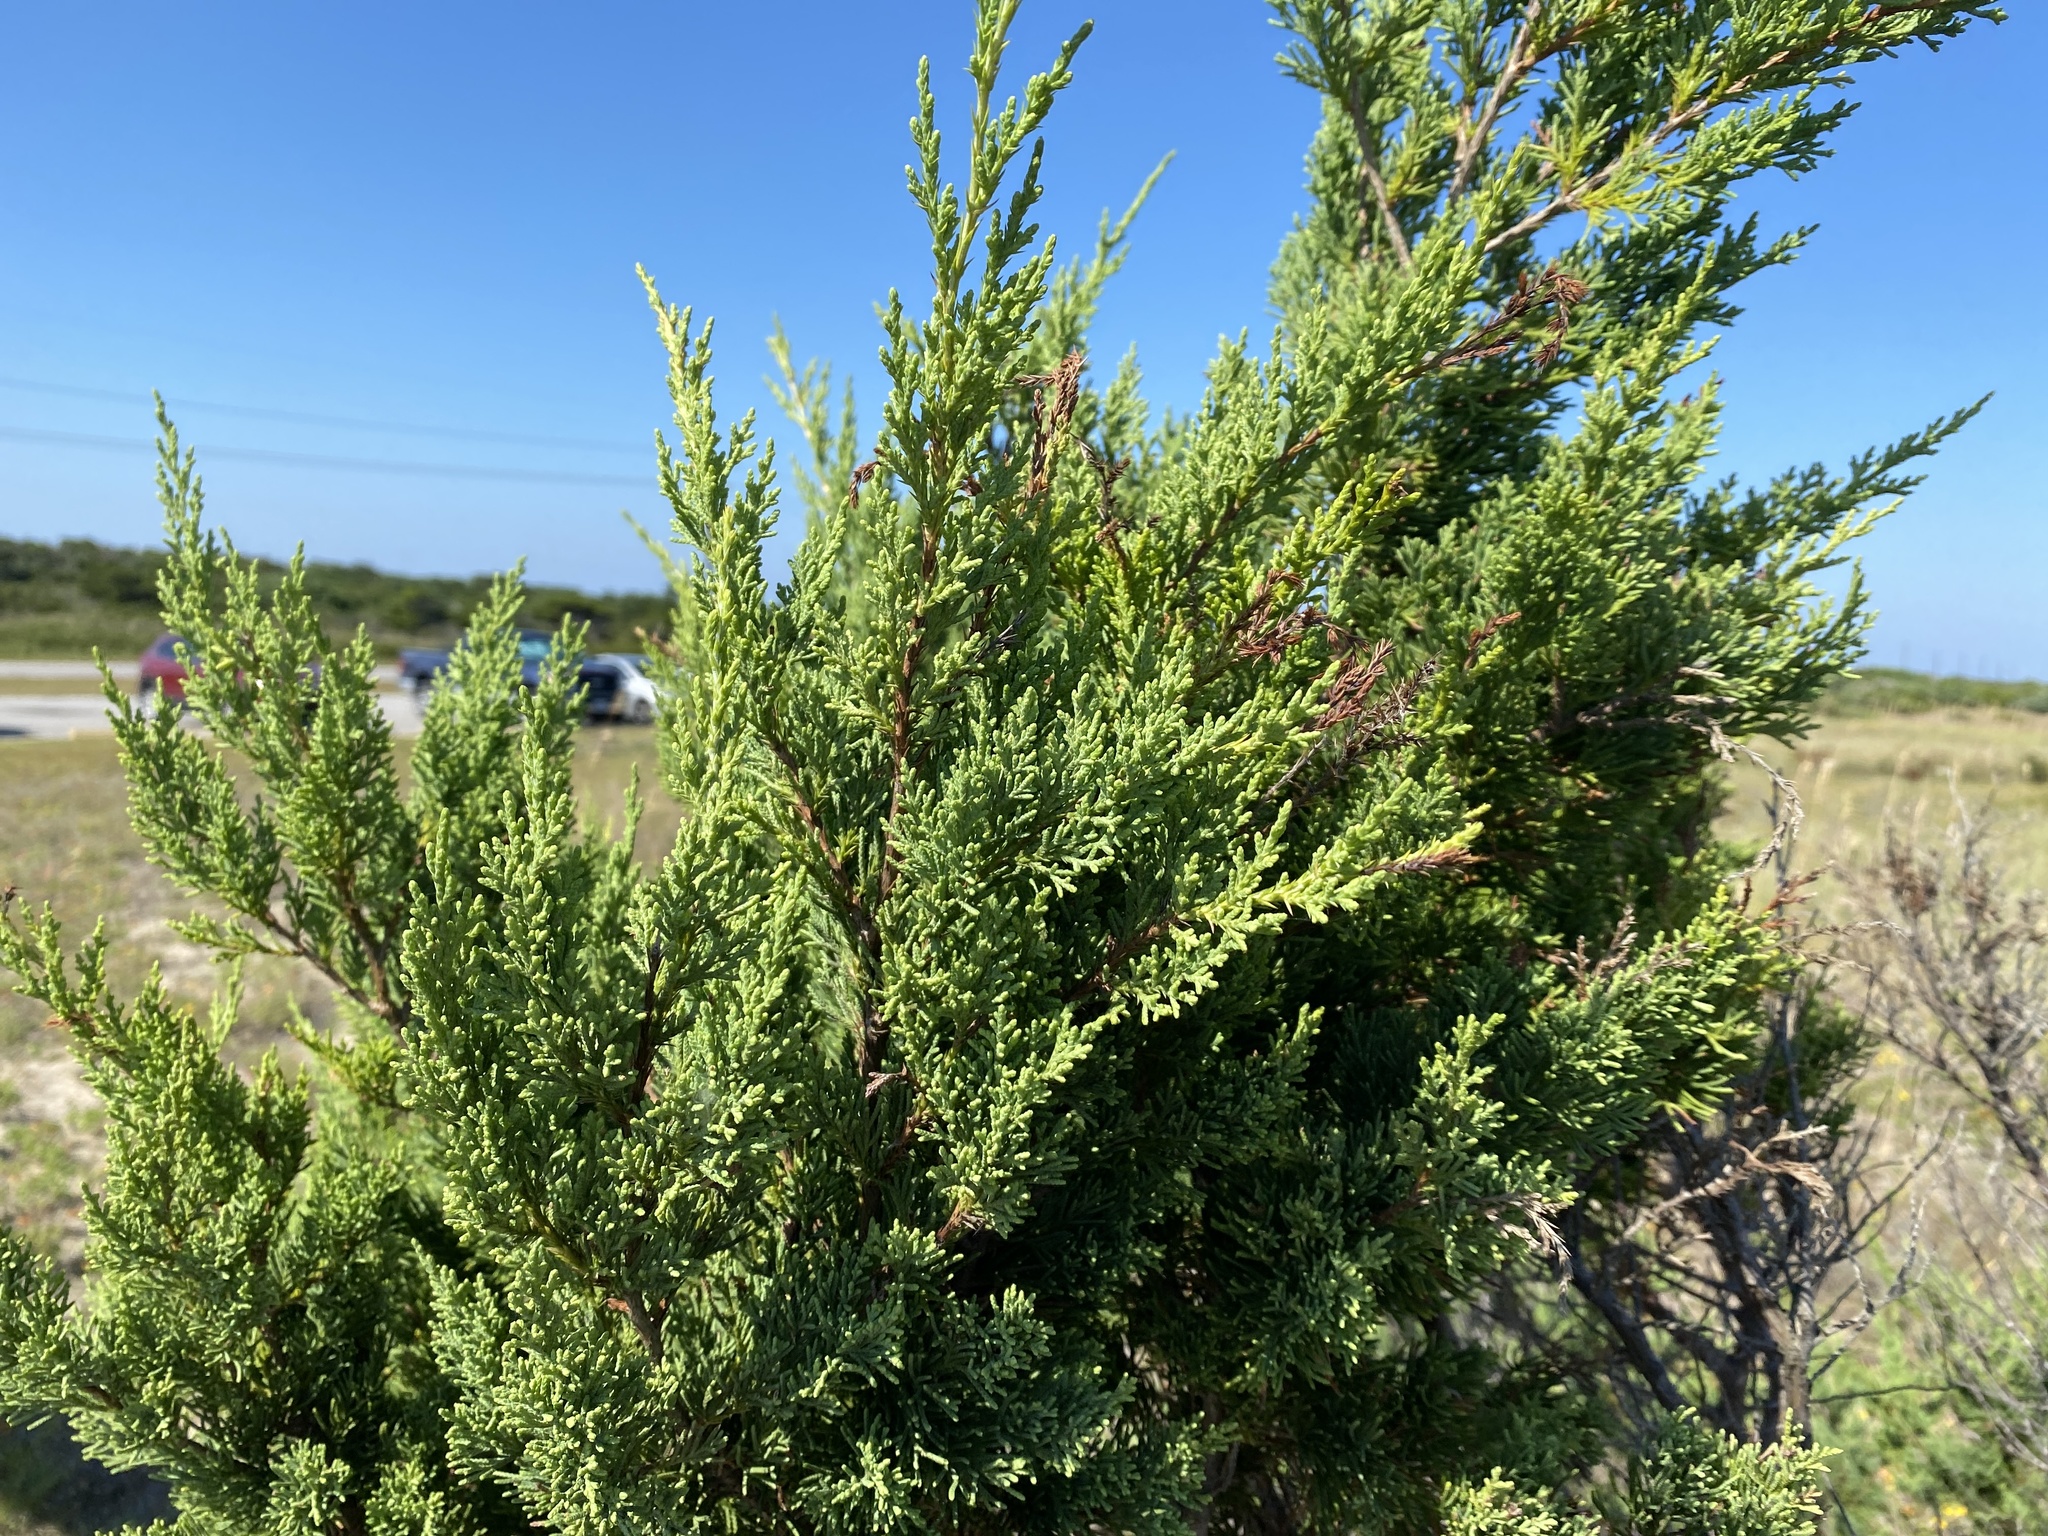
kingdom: Plantae
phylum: Tracheophyta
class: Pinopsida
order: Pinales
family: Cupressaceae
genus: Juniperus
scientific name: Juniperus virginiana
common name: Red juniper
